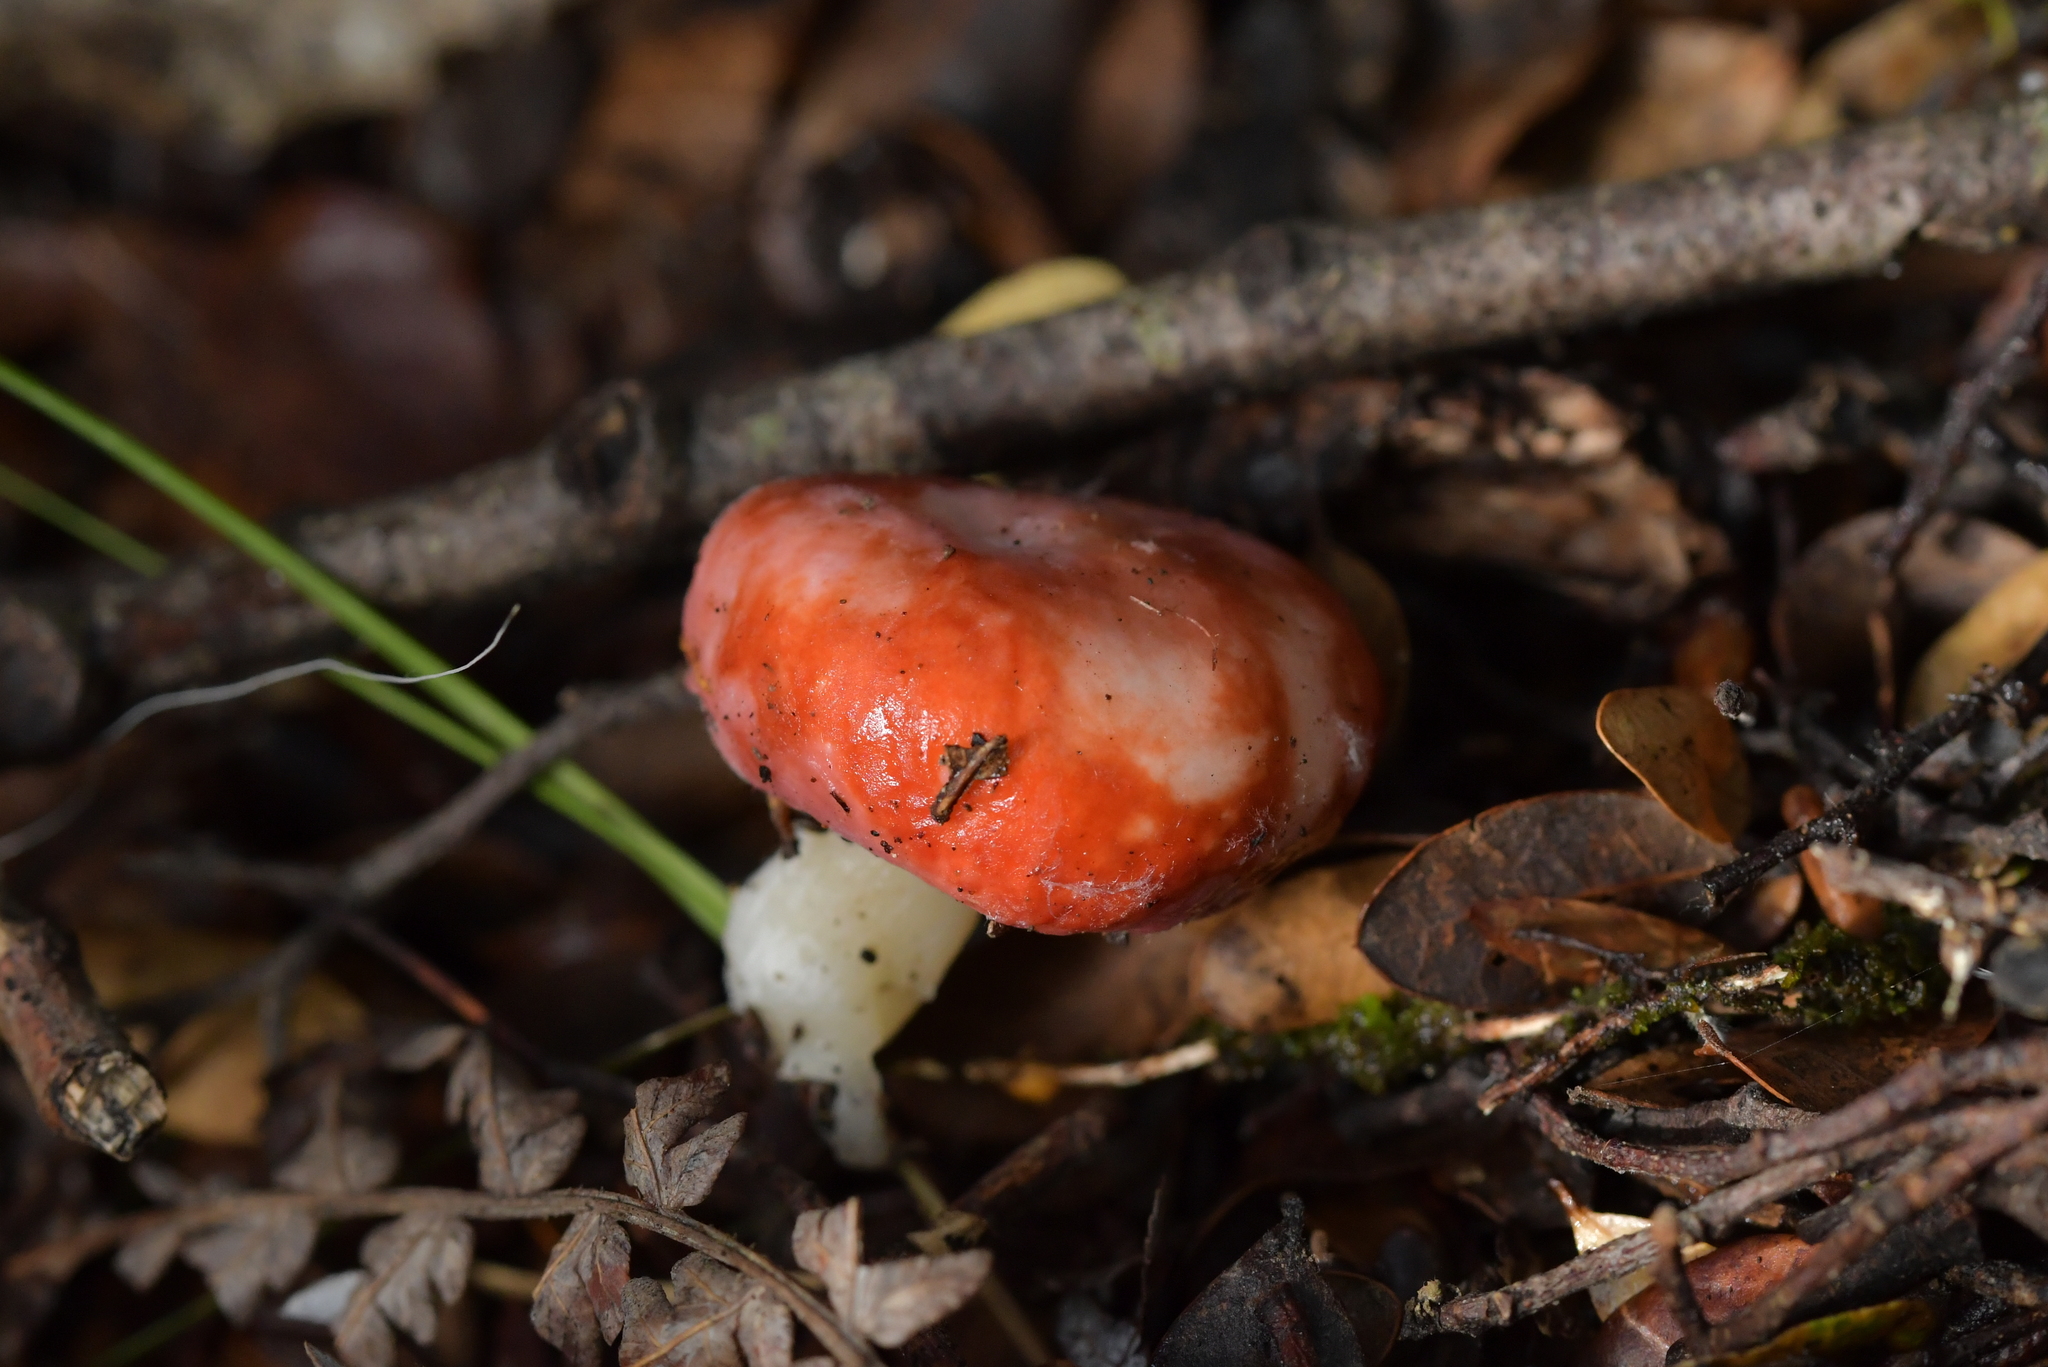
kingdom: Fungi
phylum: Basidiomycota
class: Agaricomycetes
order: Russulales
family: Russulaceae
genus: Russula
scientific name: Russula kermesina
